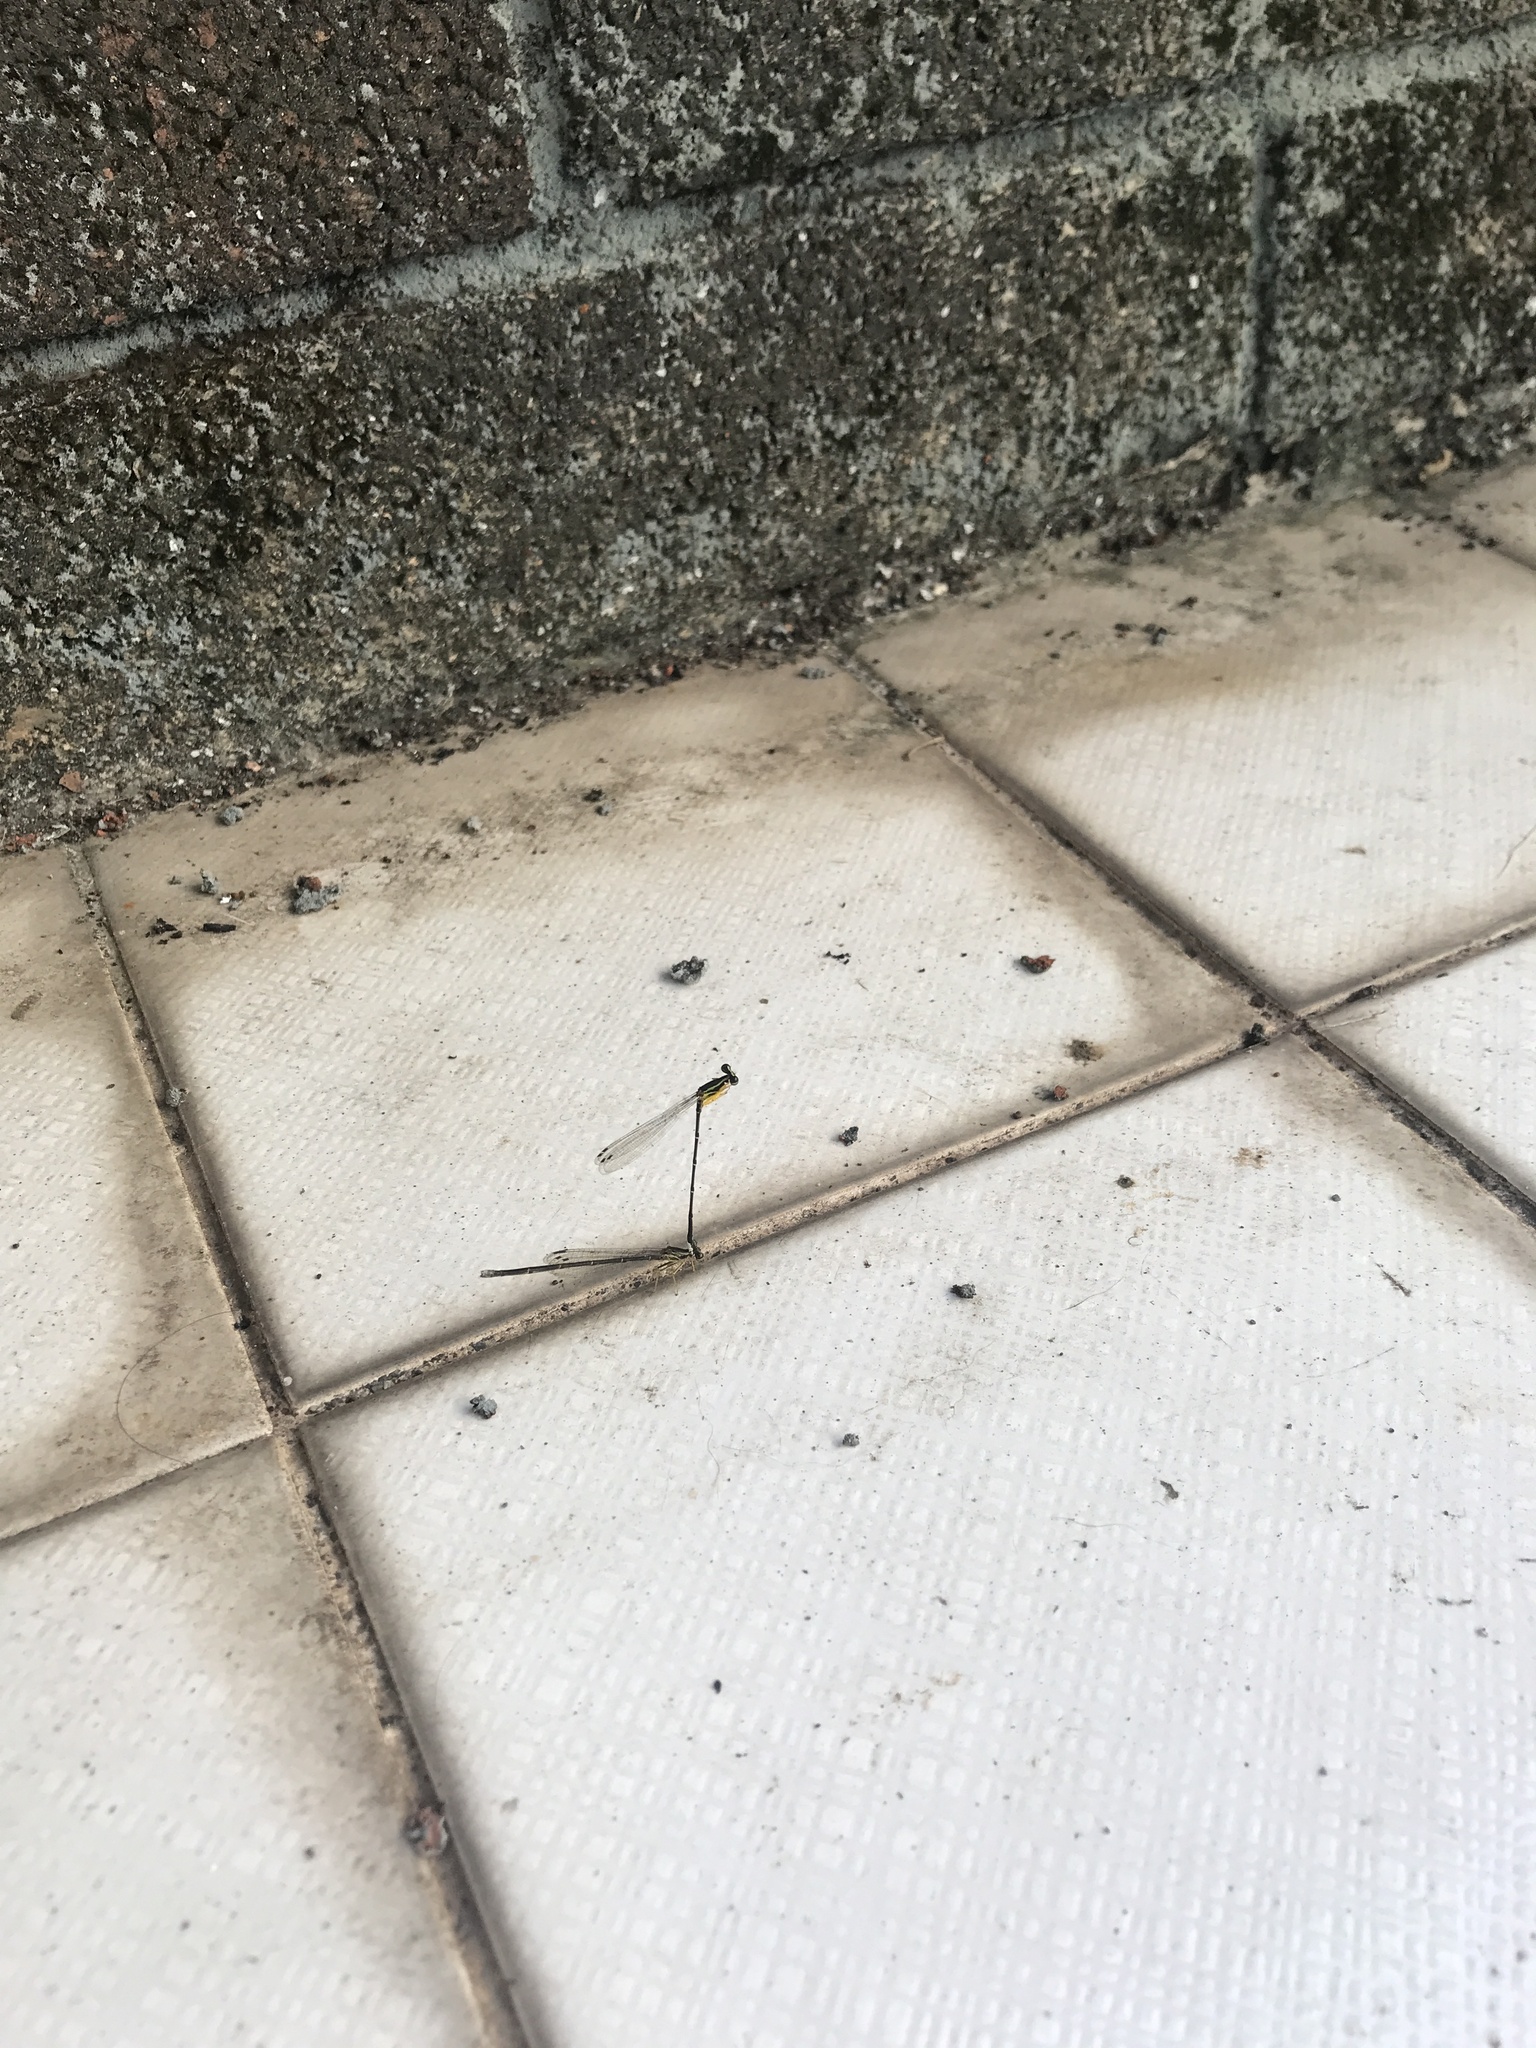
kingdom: Animalia
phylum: Arthropoda
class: Insecta
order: Odonata
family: Platycnemididae
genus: Copera
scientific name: Copera marginipes
